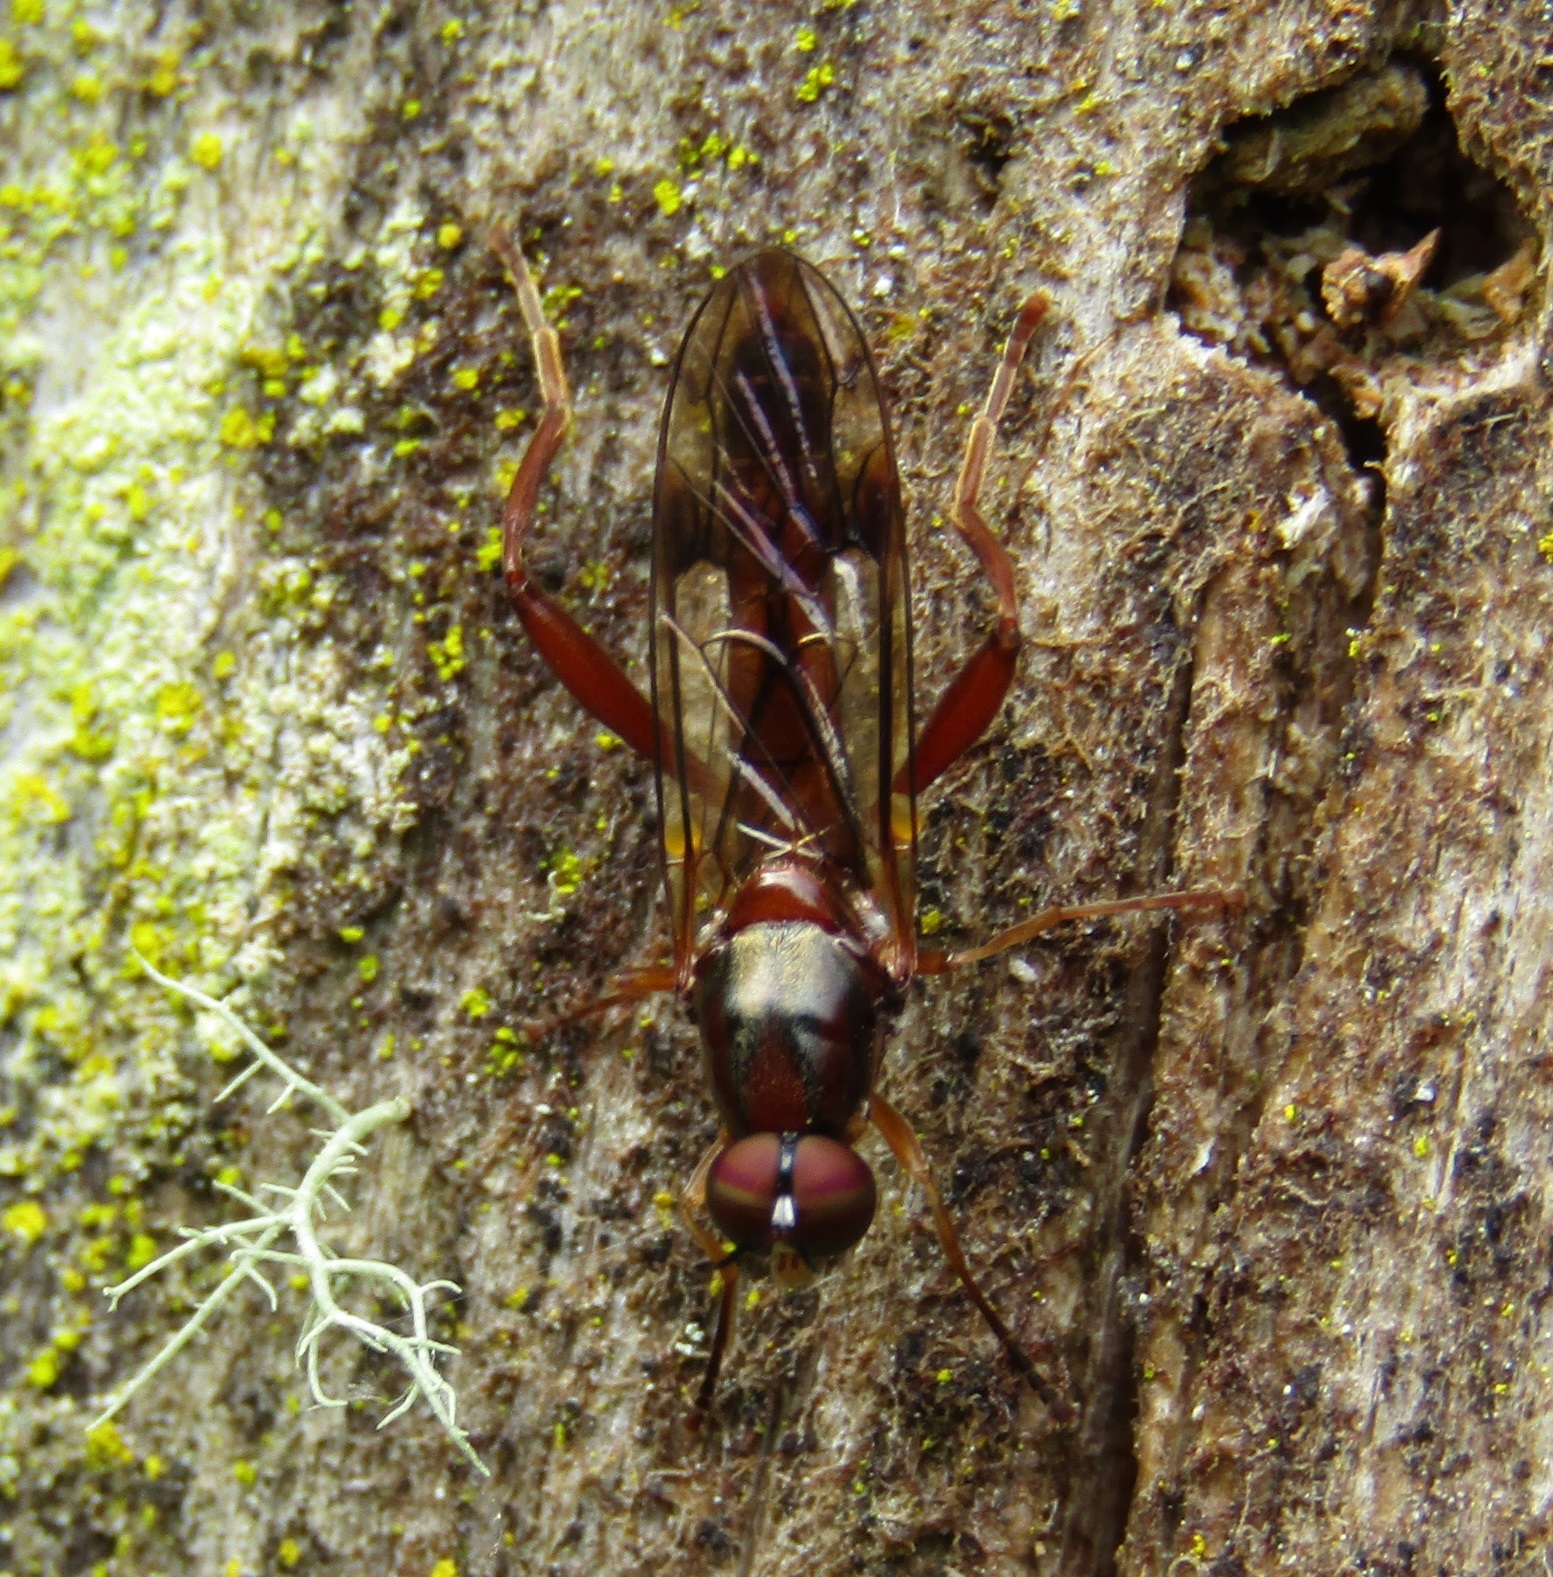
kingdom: Animalia
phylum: Arthropoda
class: Insecta
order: Diptera
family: Stratiomyidae
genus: Benhamyia
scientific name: Benhamyia straznitzkii
